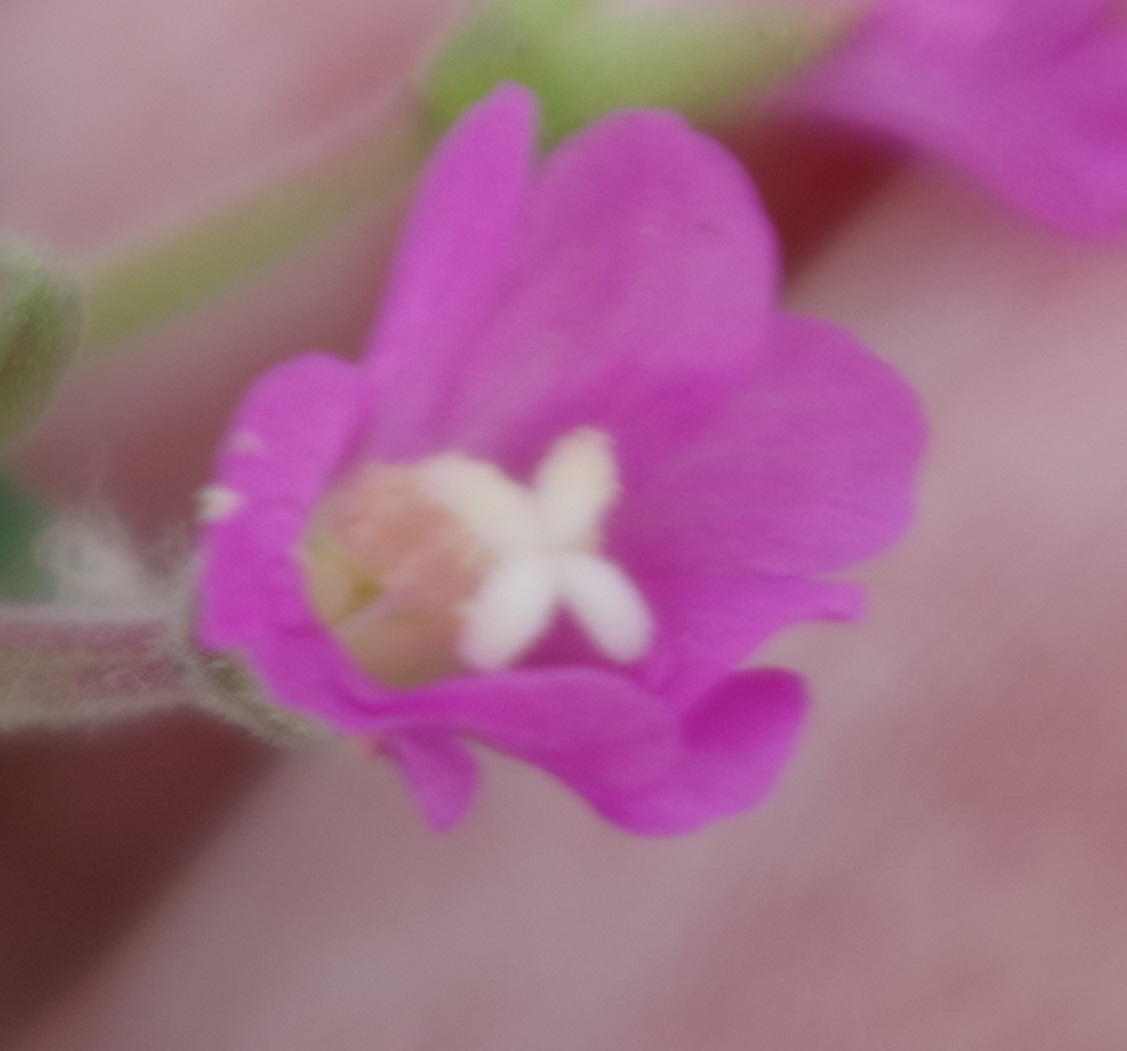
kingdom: Plantae
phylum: Tracheophyta
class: Magnoliopsida
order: Myrtales
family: Onagraceae
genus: Epilobium
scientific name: Epilobium hirsutum
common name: Great willowherb
